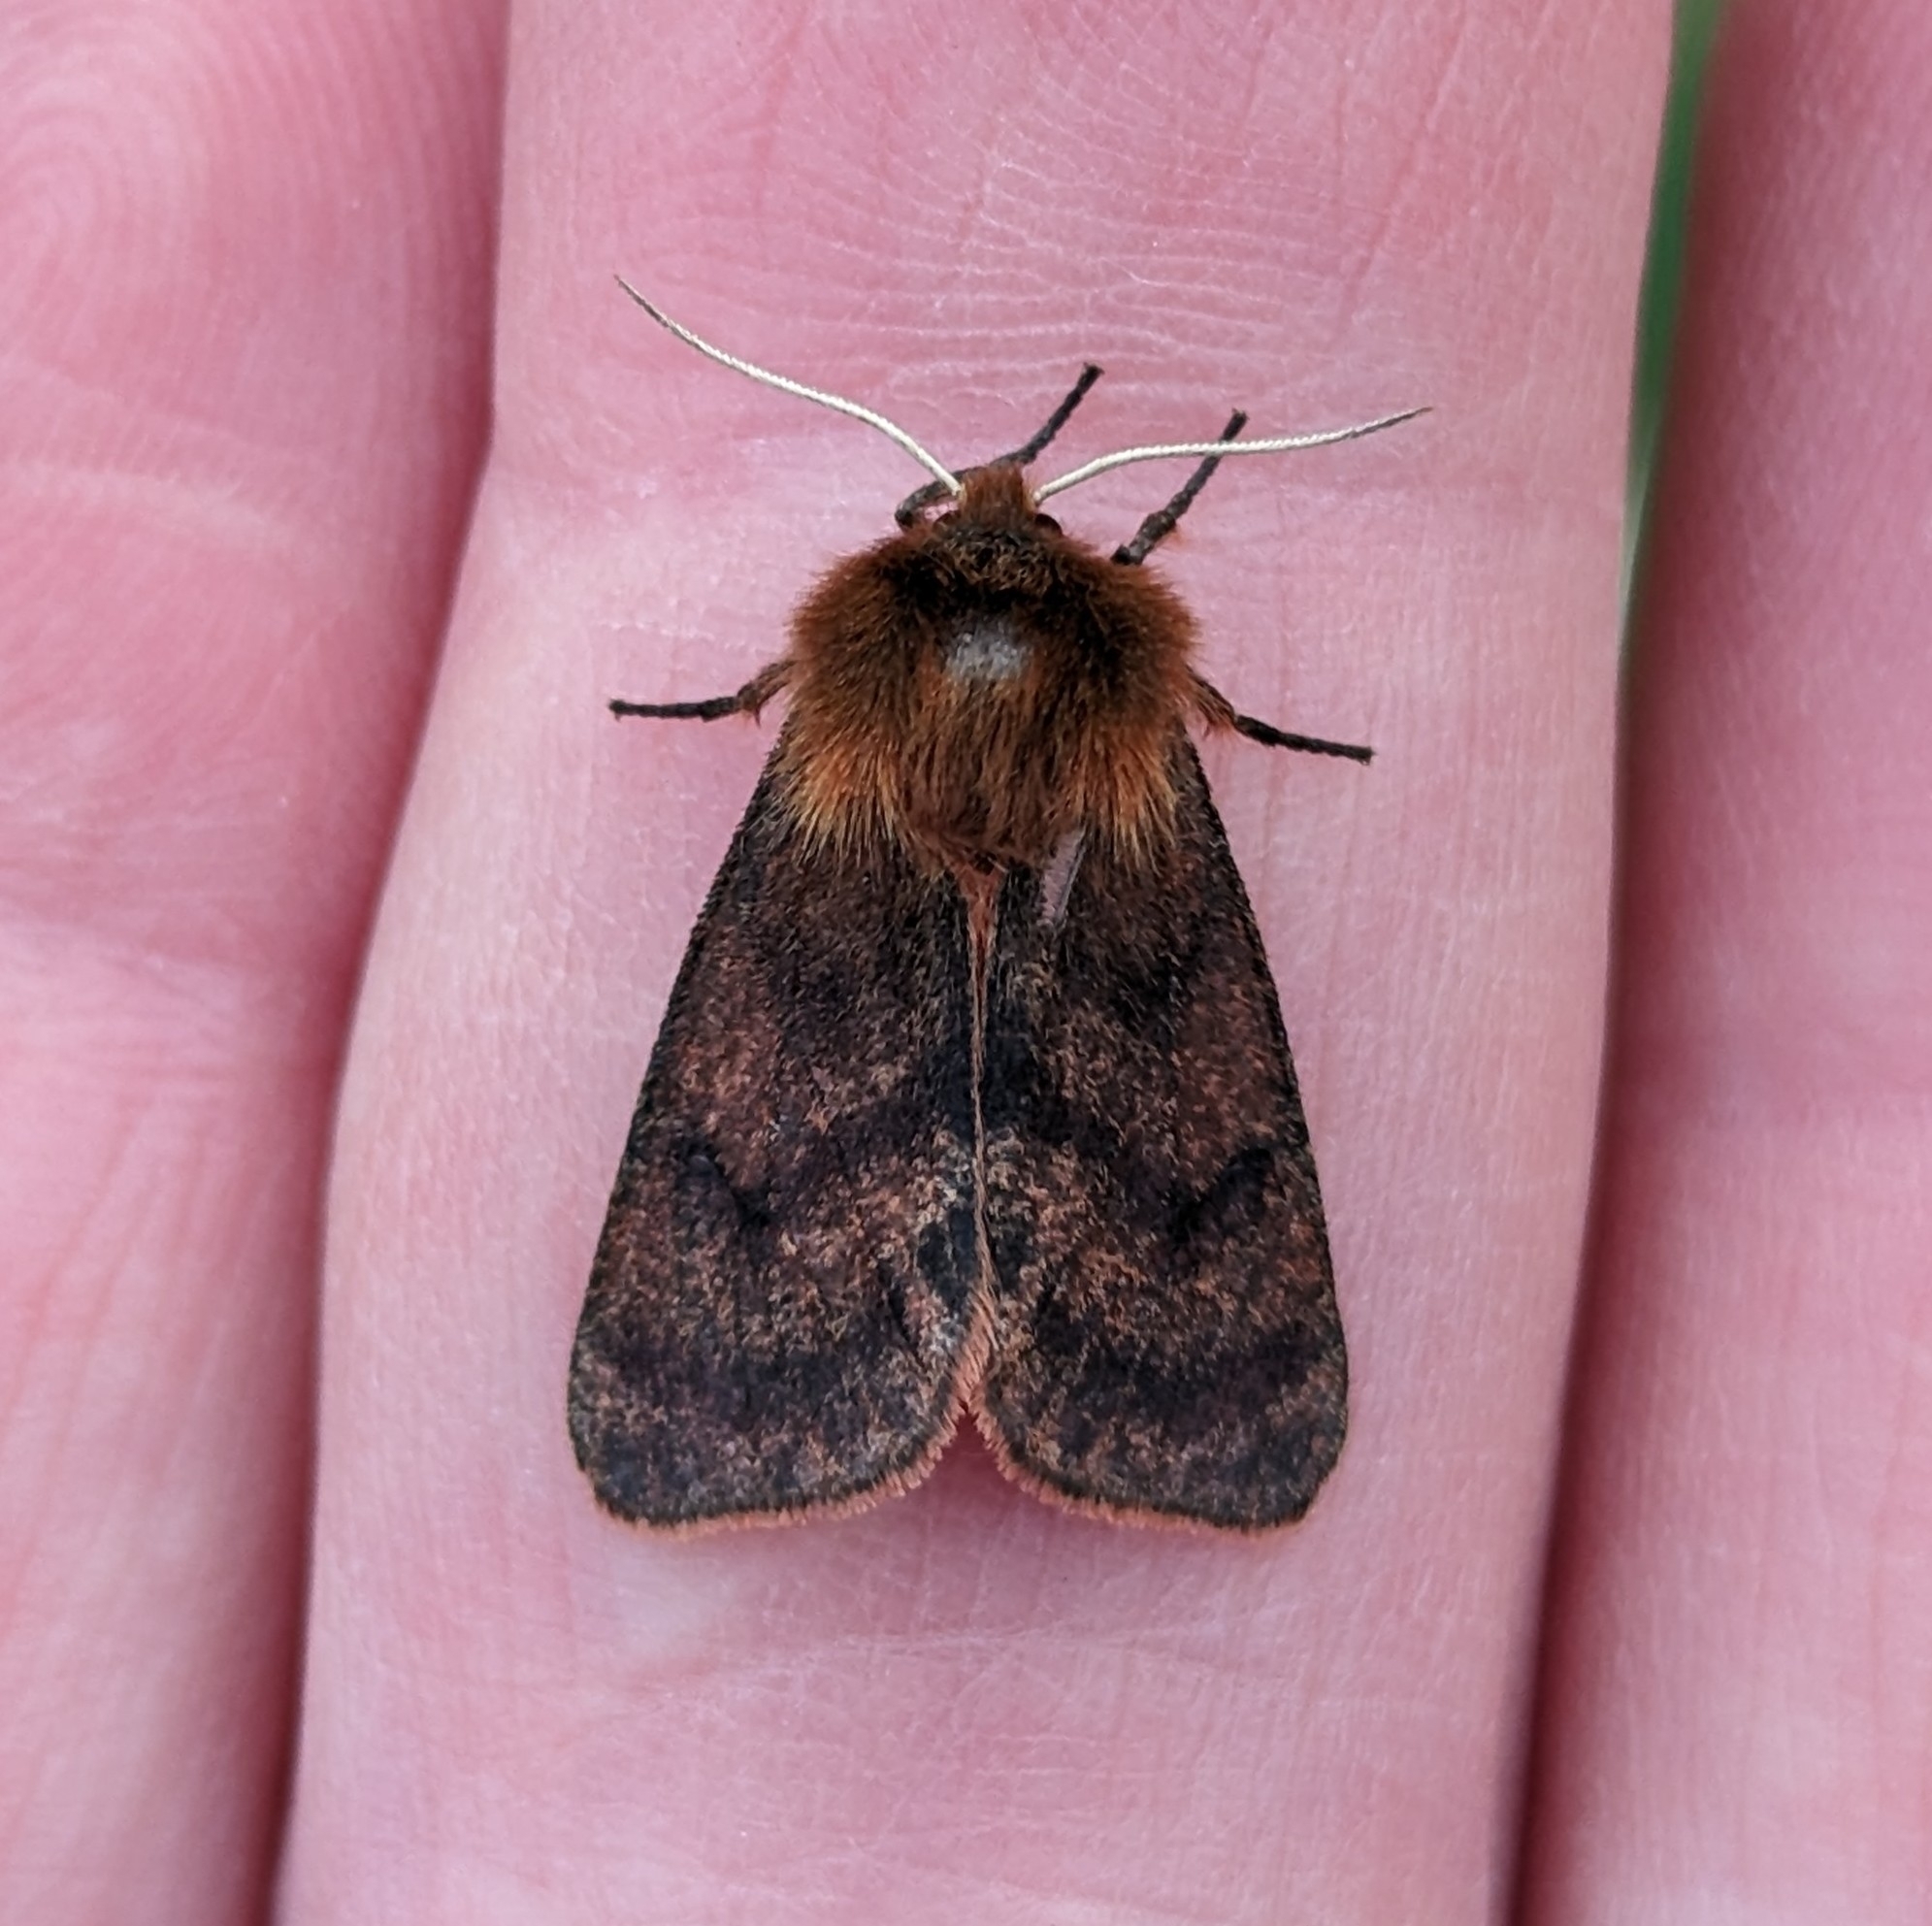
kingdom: Animalia
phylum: Arthropoda
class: Insecta
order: Lepidoptera
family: Erebidae
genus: Phragmatobia
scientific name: Phragmatobia assimilans
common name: Large ruby tiger moth
